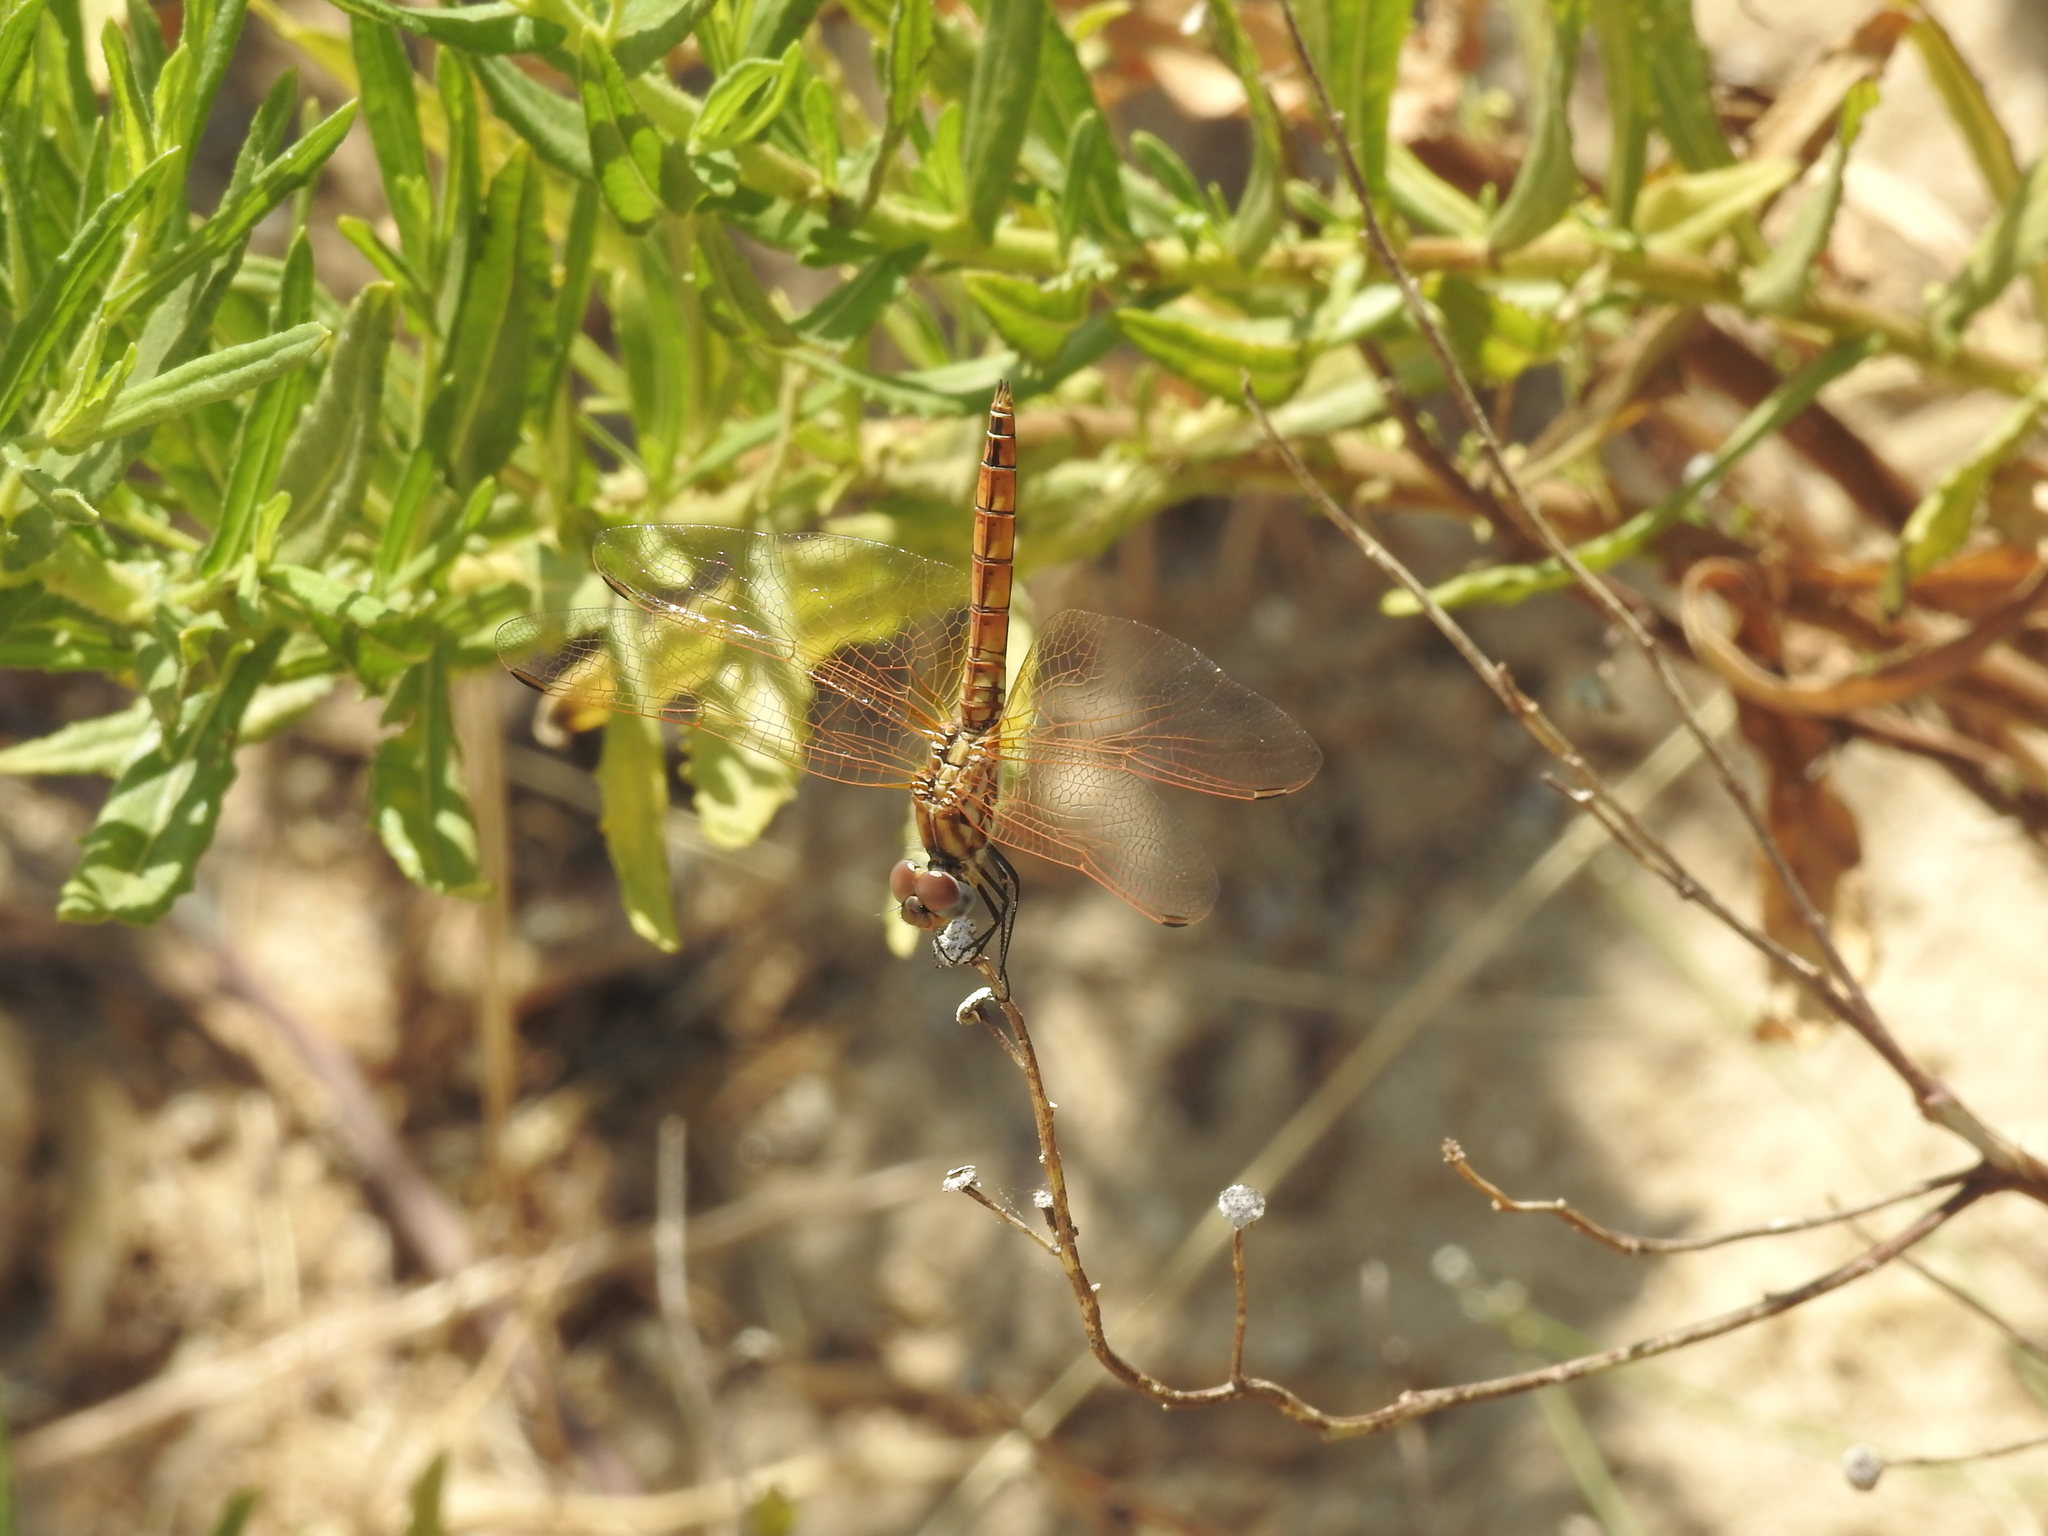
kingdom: Animalia
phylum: Arthropoda
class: Insecta
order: Odonata
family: Libellulidae
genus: Trithemis
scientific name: Trithemis annulata
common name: Violet dropwing
